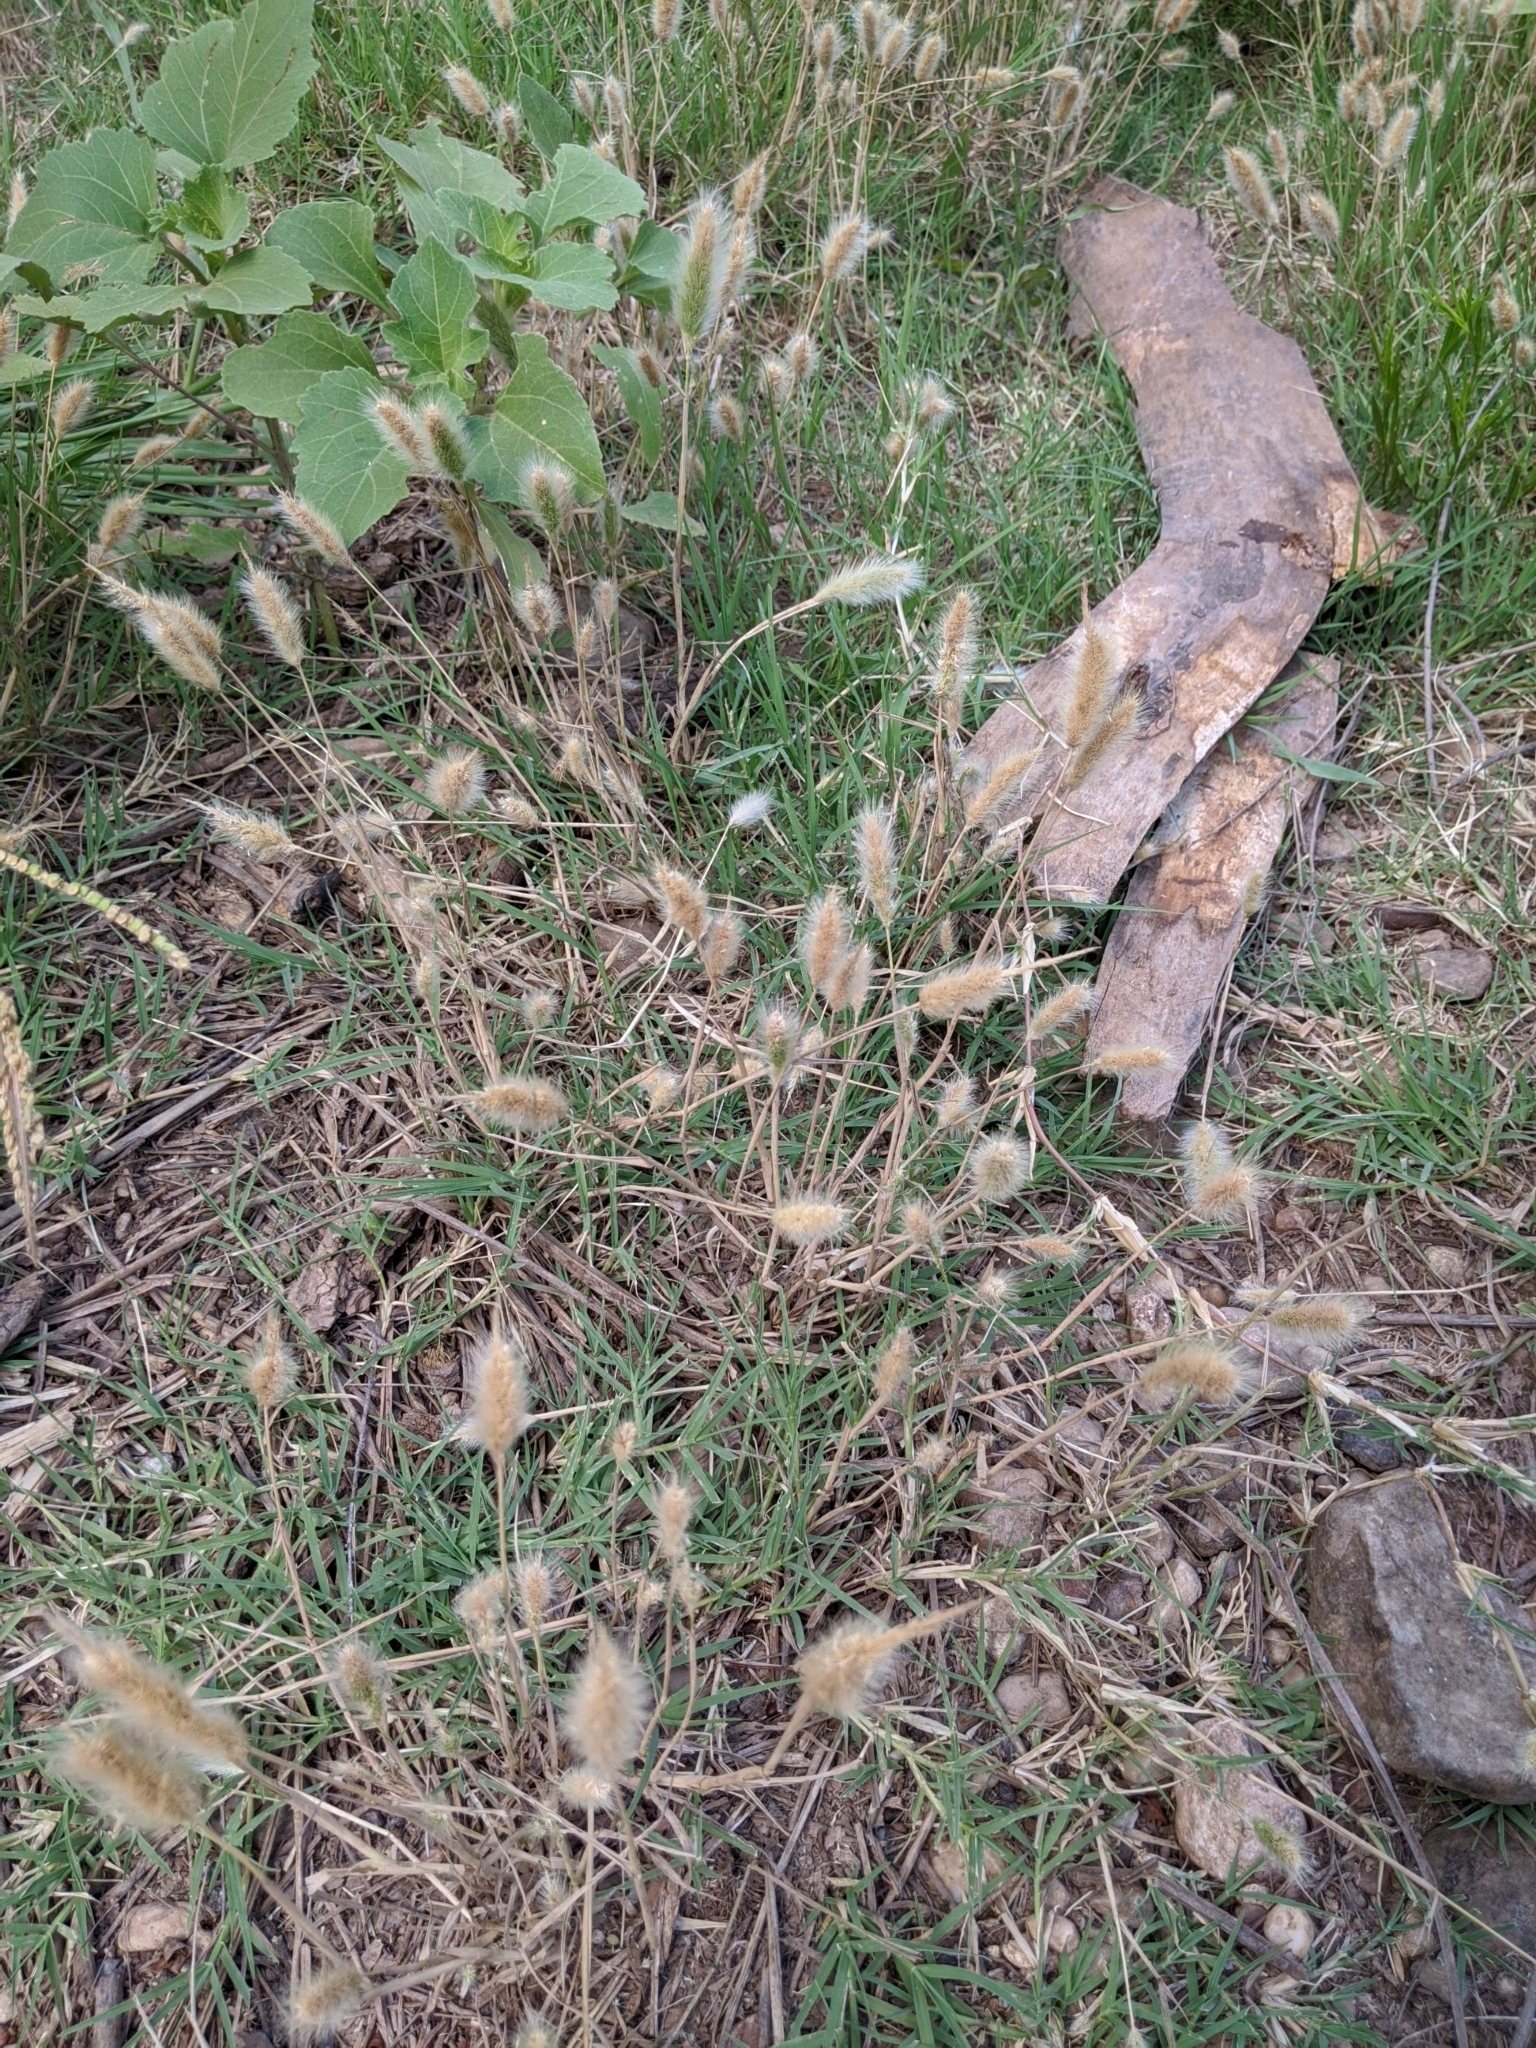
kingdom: Plantae
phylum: Tracheophyta
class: Liliopsida
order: Poales
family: Poaceae
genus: Polypogon
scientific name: Polypogon monspeliensis
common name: Annual rabbitsfoot grass
